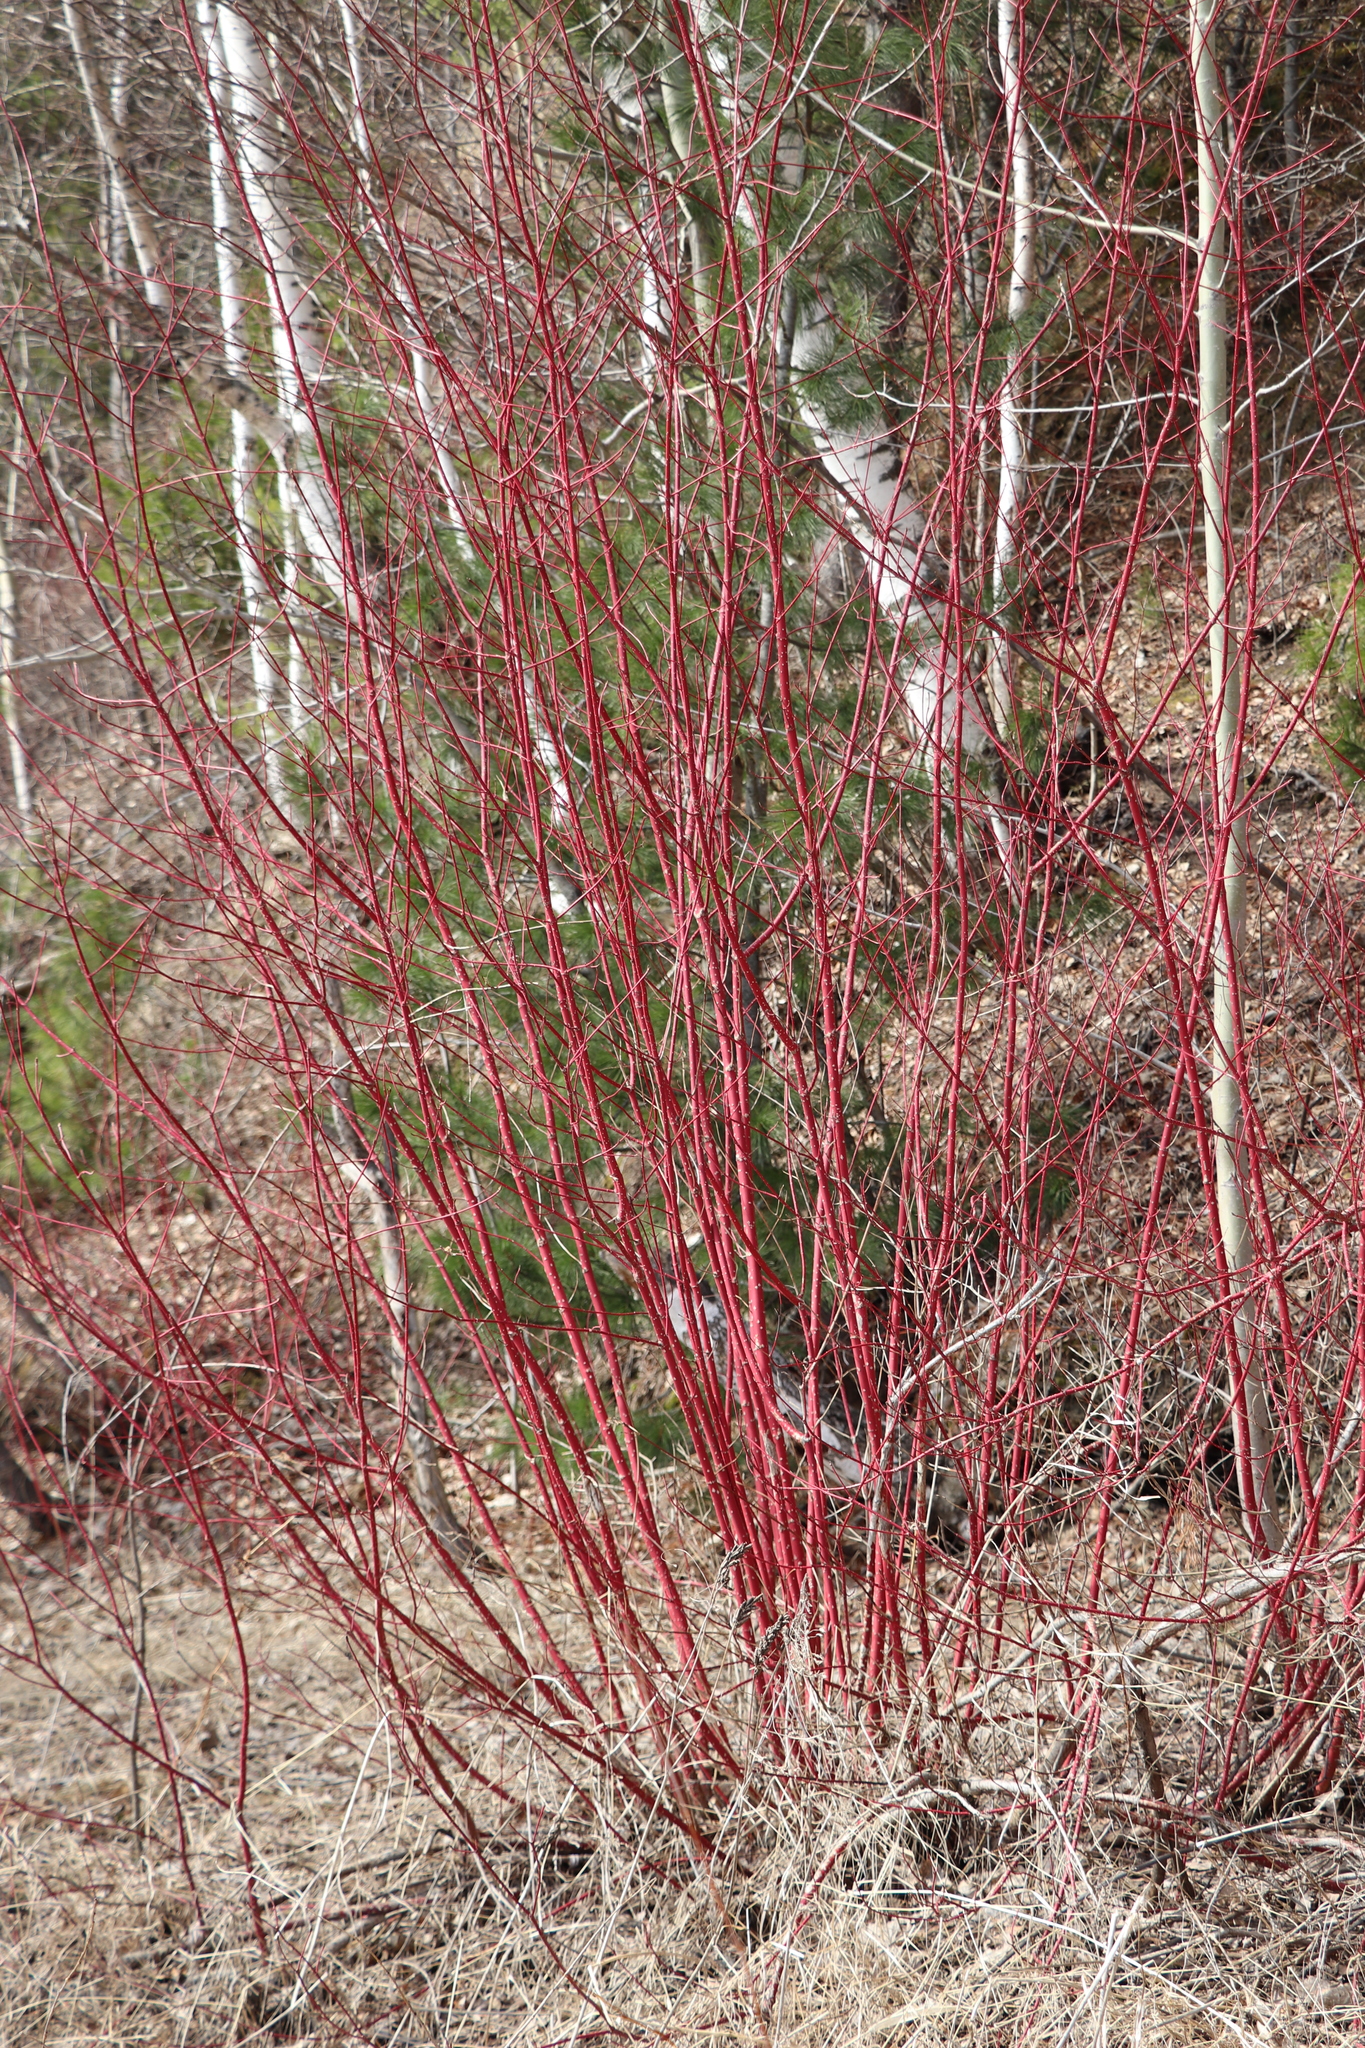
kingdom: Plantae
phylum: Tracheophyta
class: Magnoliopsida
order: Cornales
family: Cornaceae
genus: Cornus
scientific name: Cornus alba
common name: White dogwood
